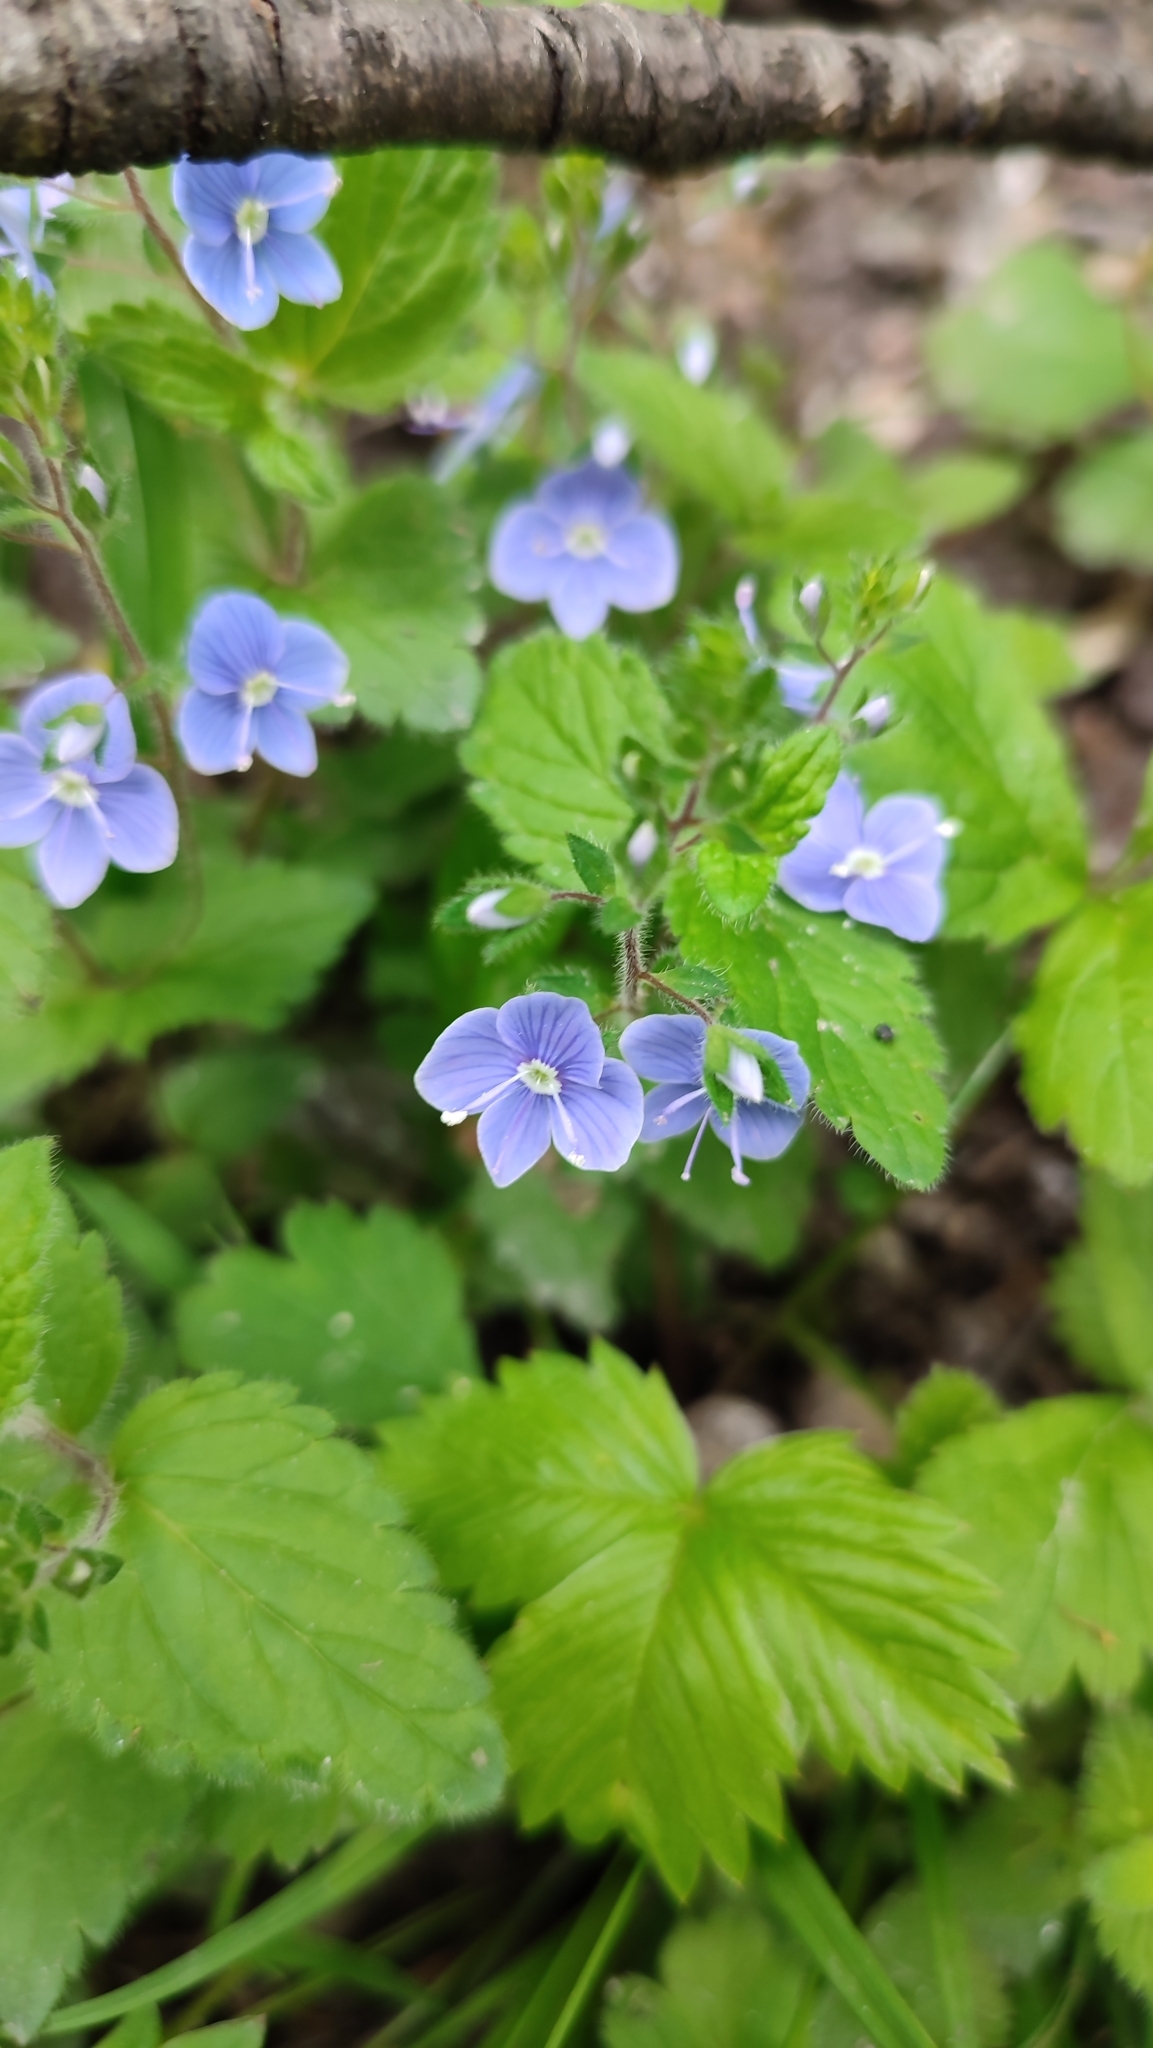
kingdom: Plantae
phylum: Tracheophyta
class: Magnoliopsida
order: Lamiales
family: Plantaginaceae
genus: Veronica
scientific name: Veronica chamaedrys
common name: Germander speedwell
